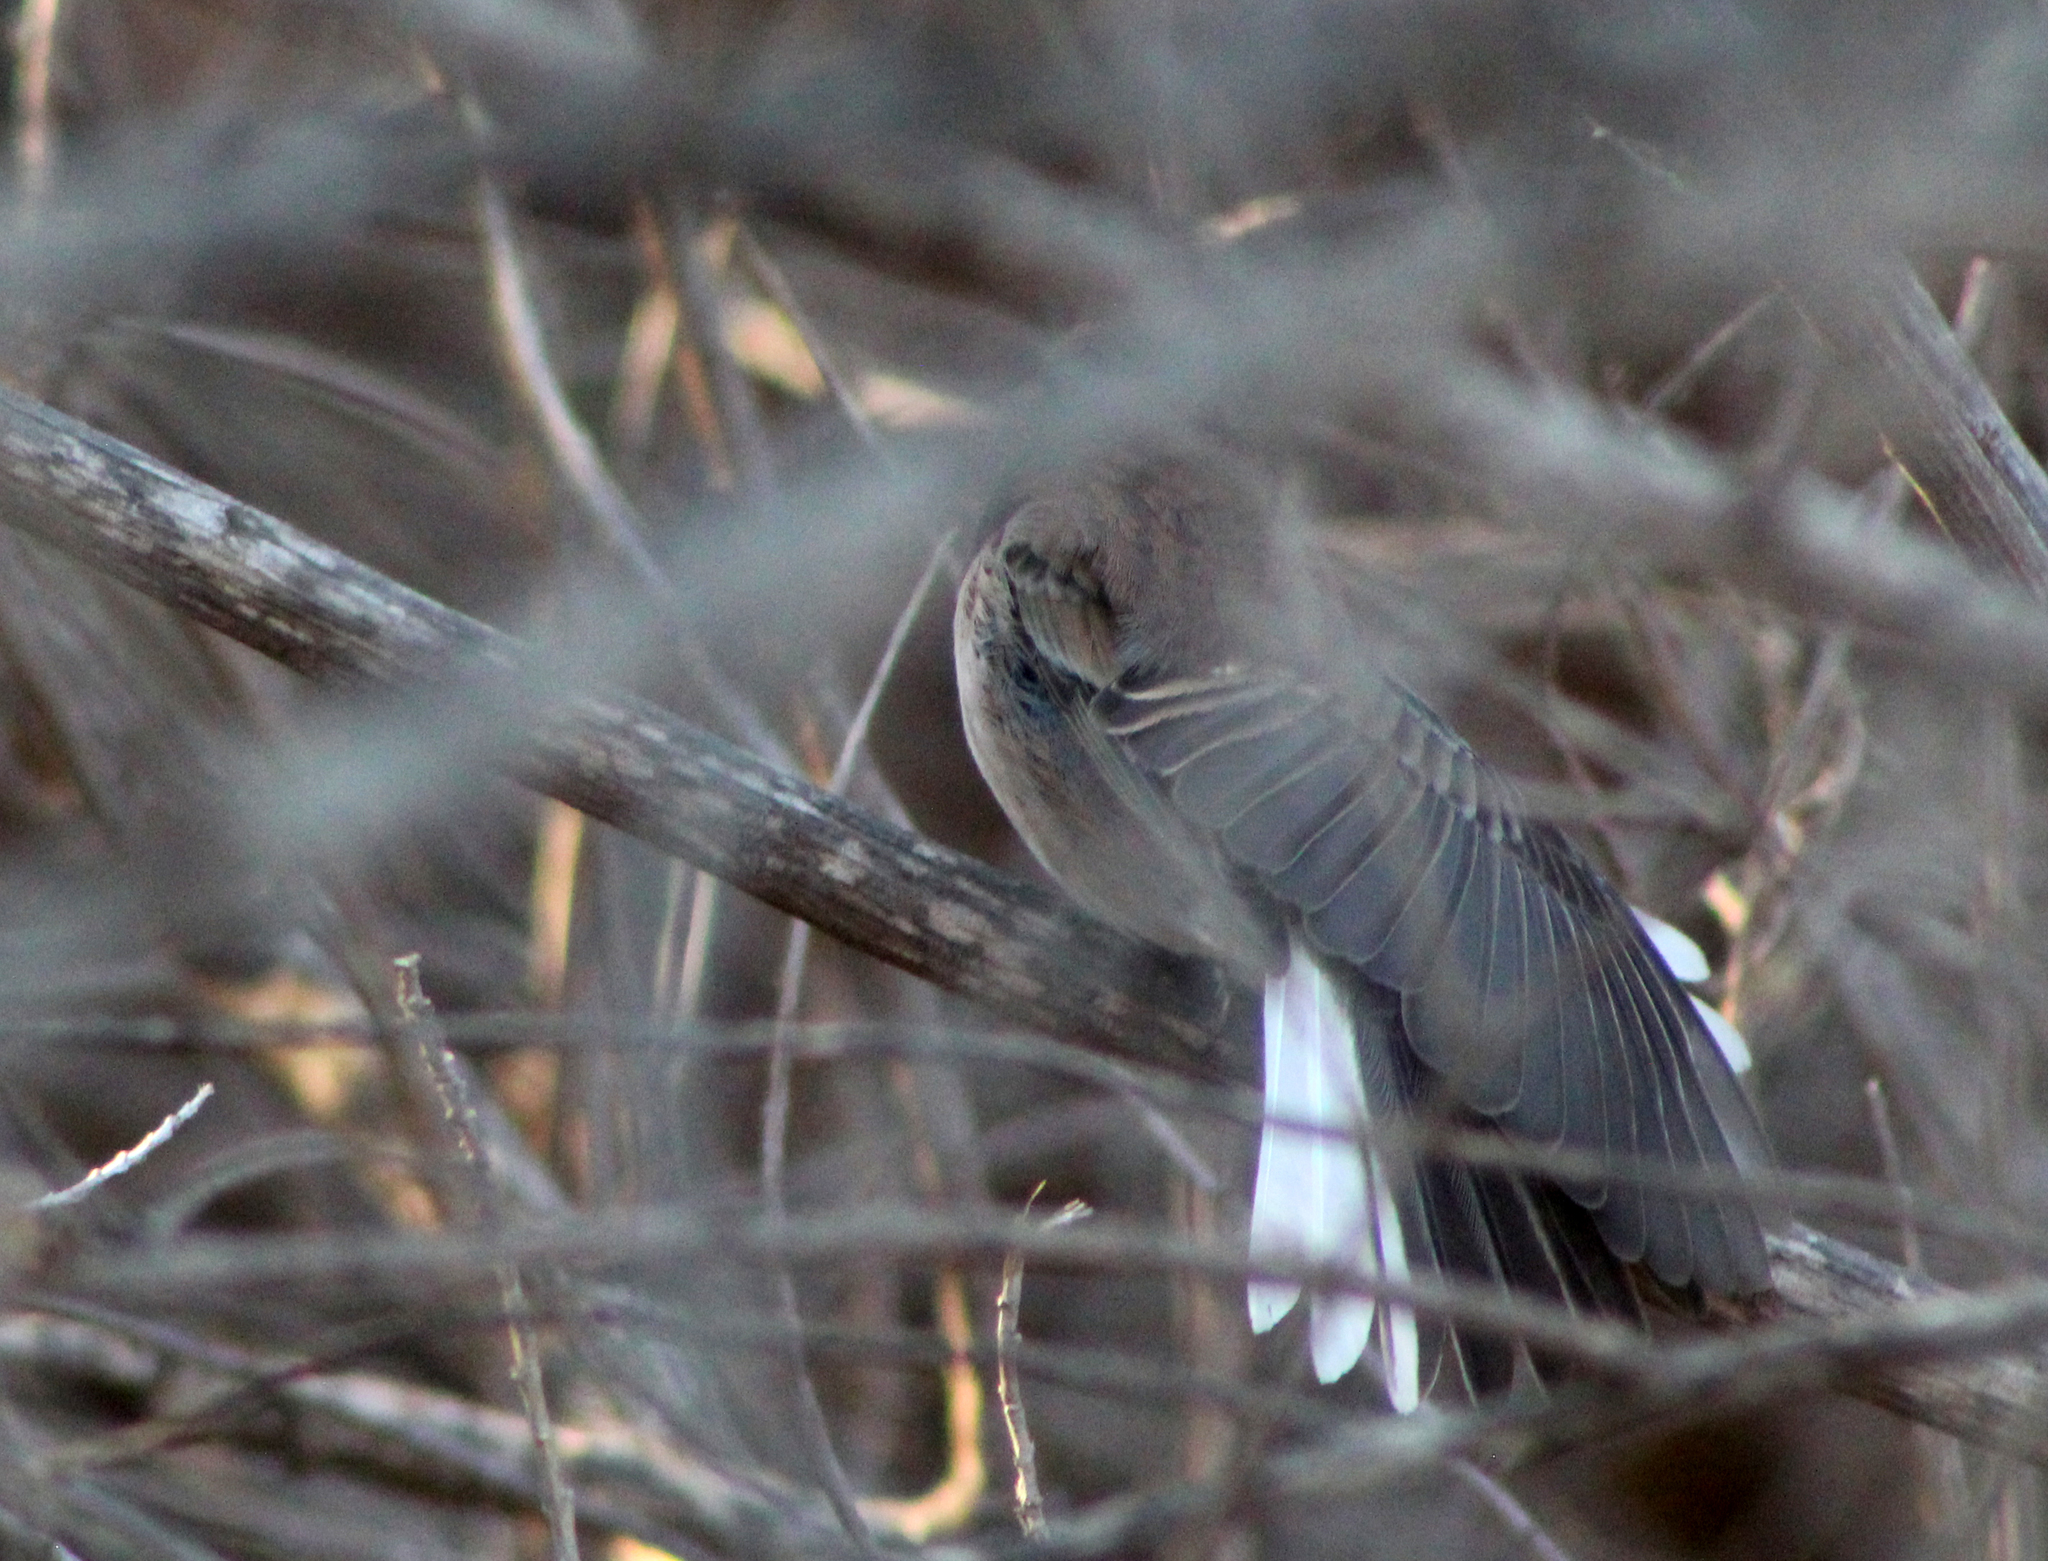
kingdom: Animalia
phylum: Chordata
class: Aves
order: Passeriformes
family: Passerellidae
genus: Junco
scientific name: Junco hyemalis
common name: Dark-eyed junco
